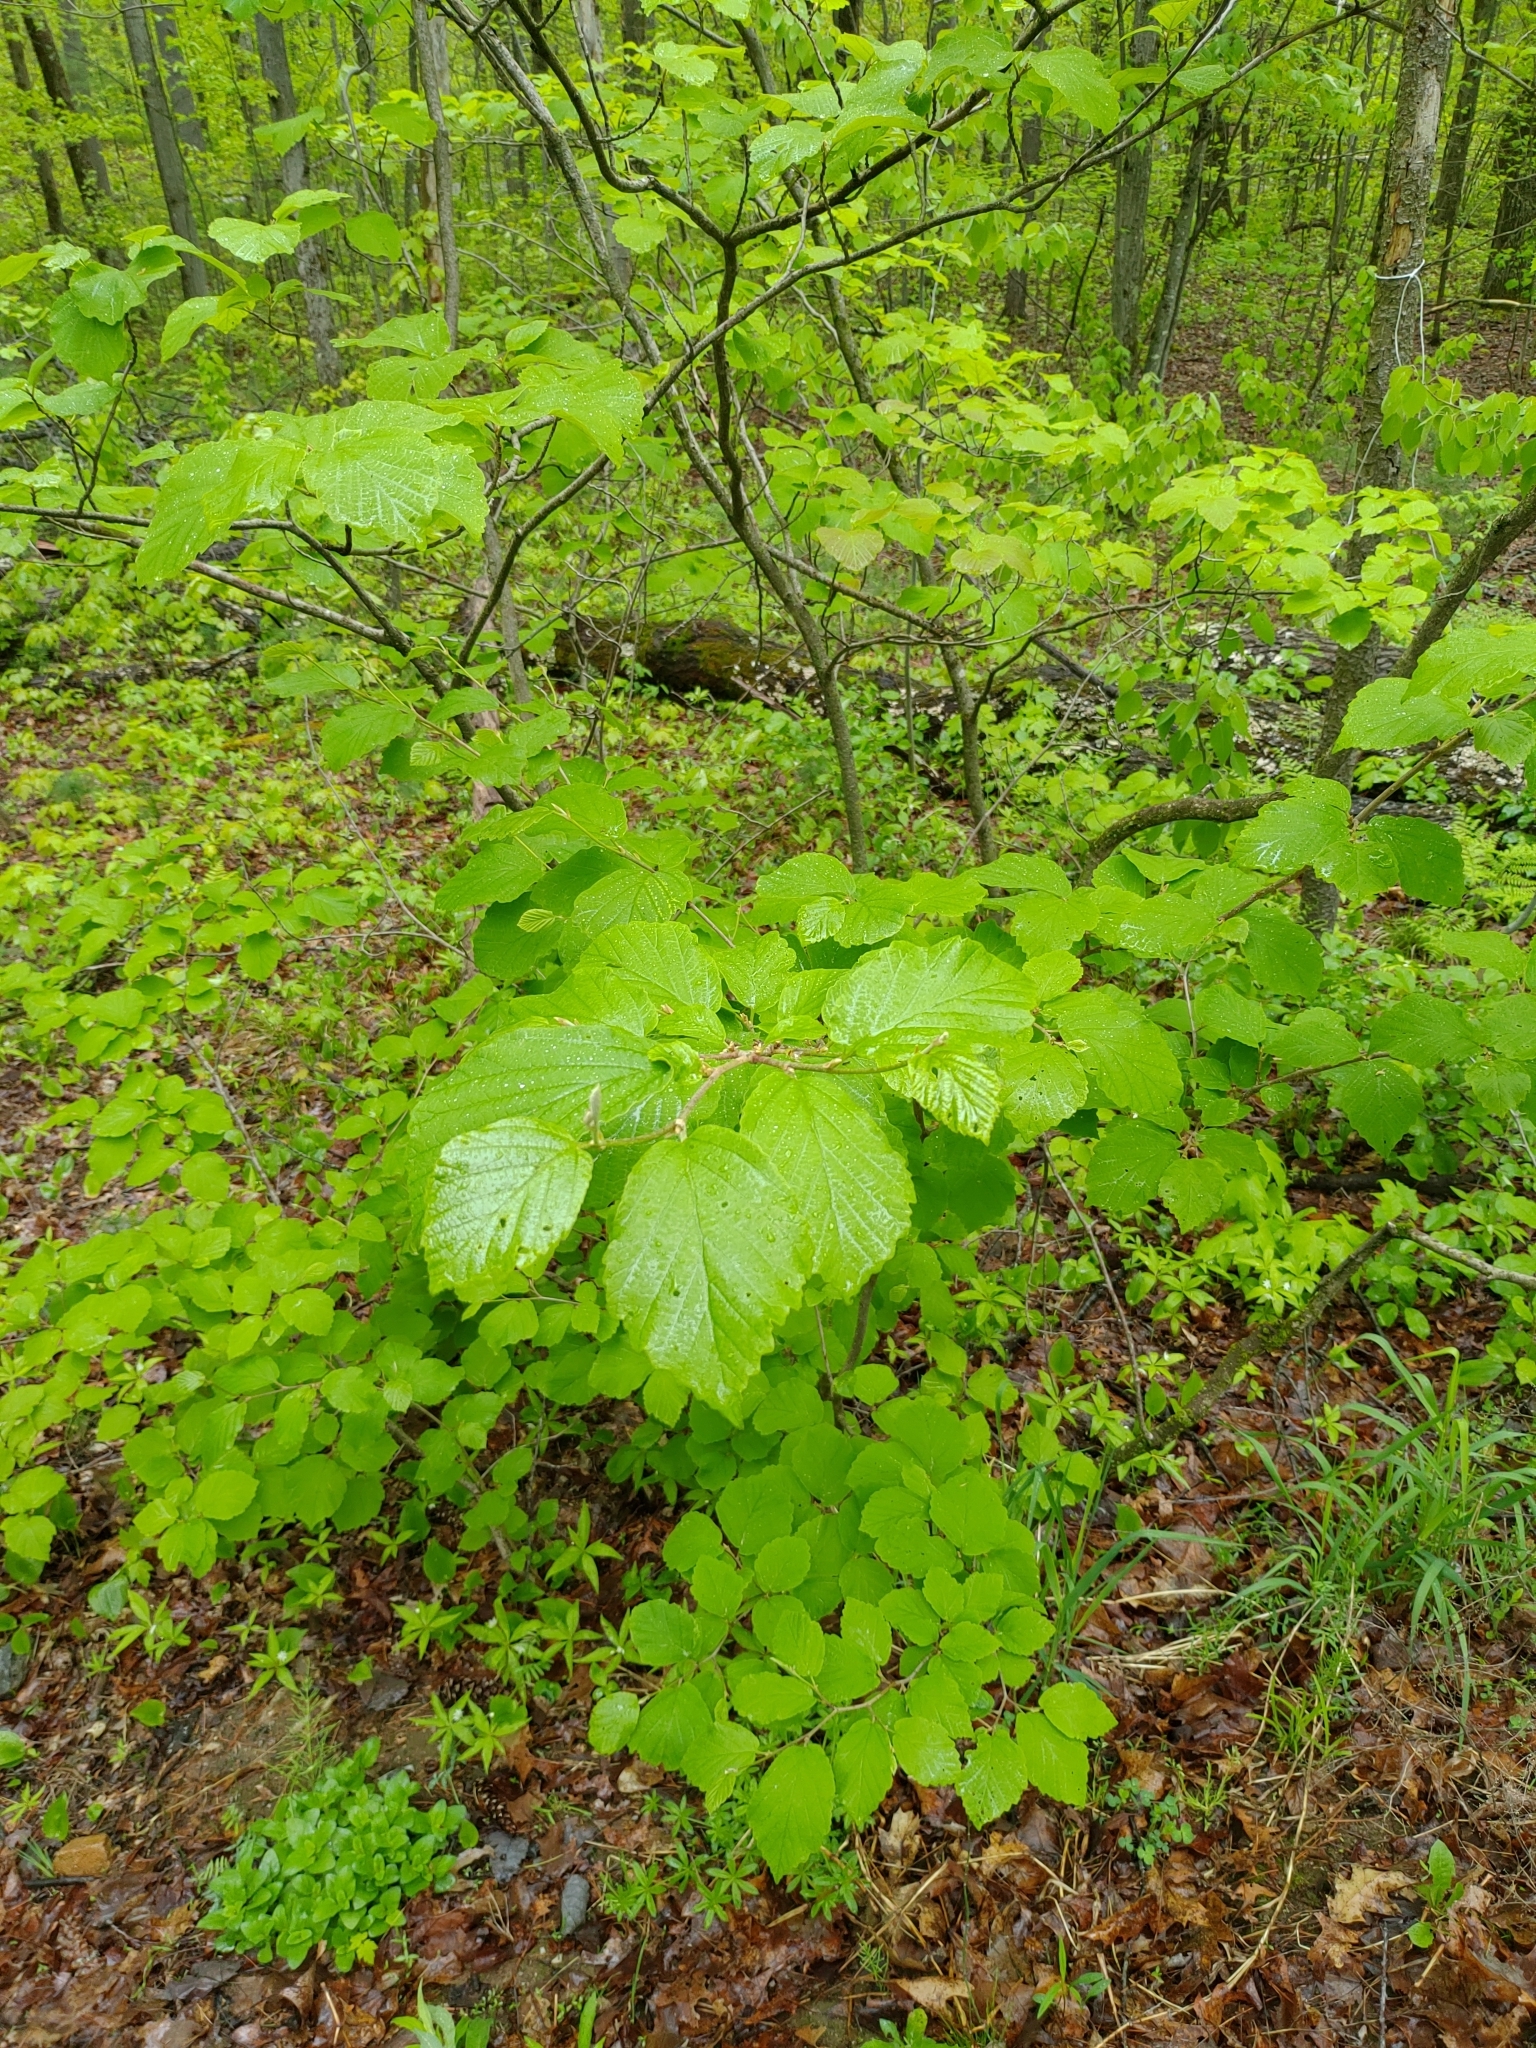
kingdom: Plantae
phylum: Tracheophyta
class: Magnoliopsida
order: Saxifragales
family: Hamamelidaceae
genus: Hamamelis
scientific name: Hamamelis virginiana
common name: Witch-hazel
